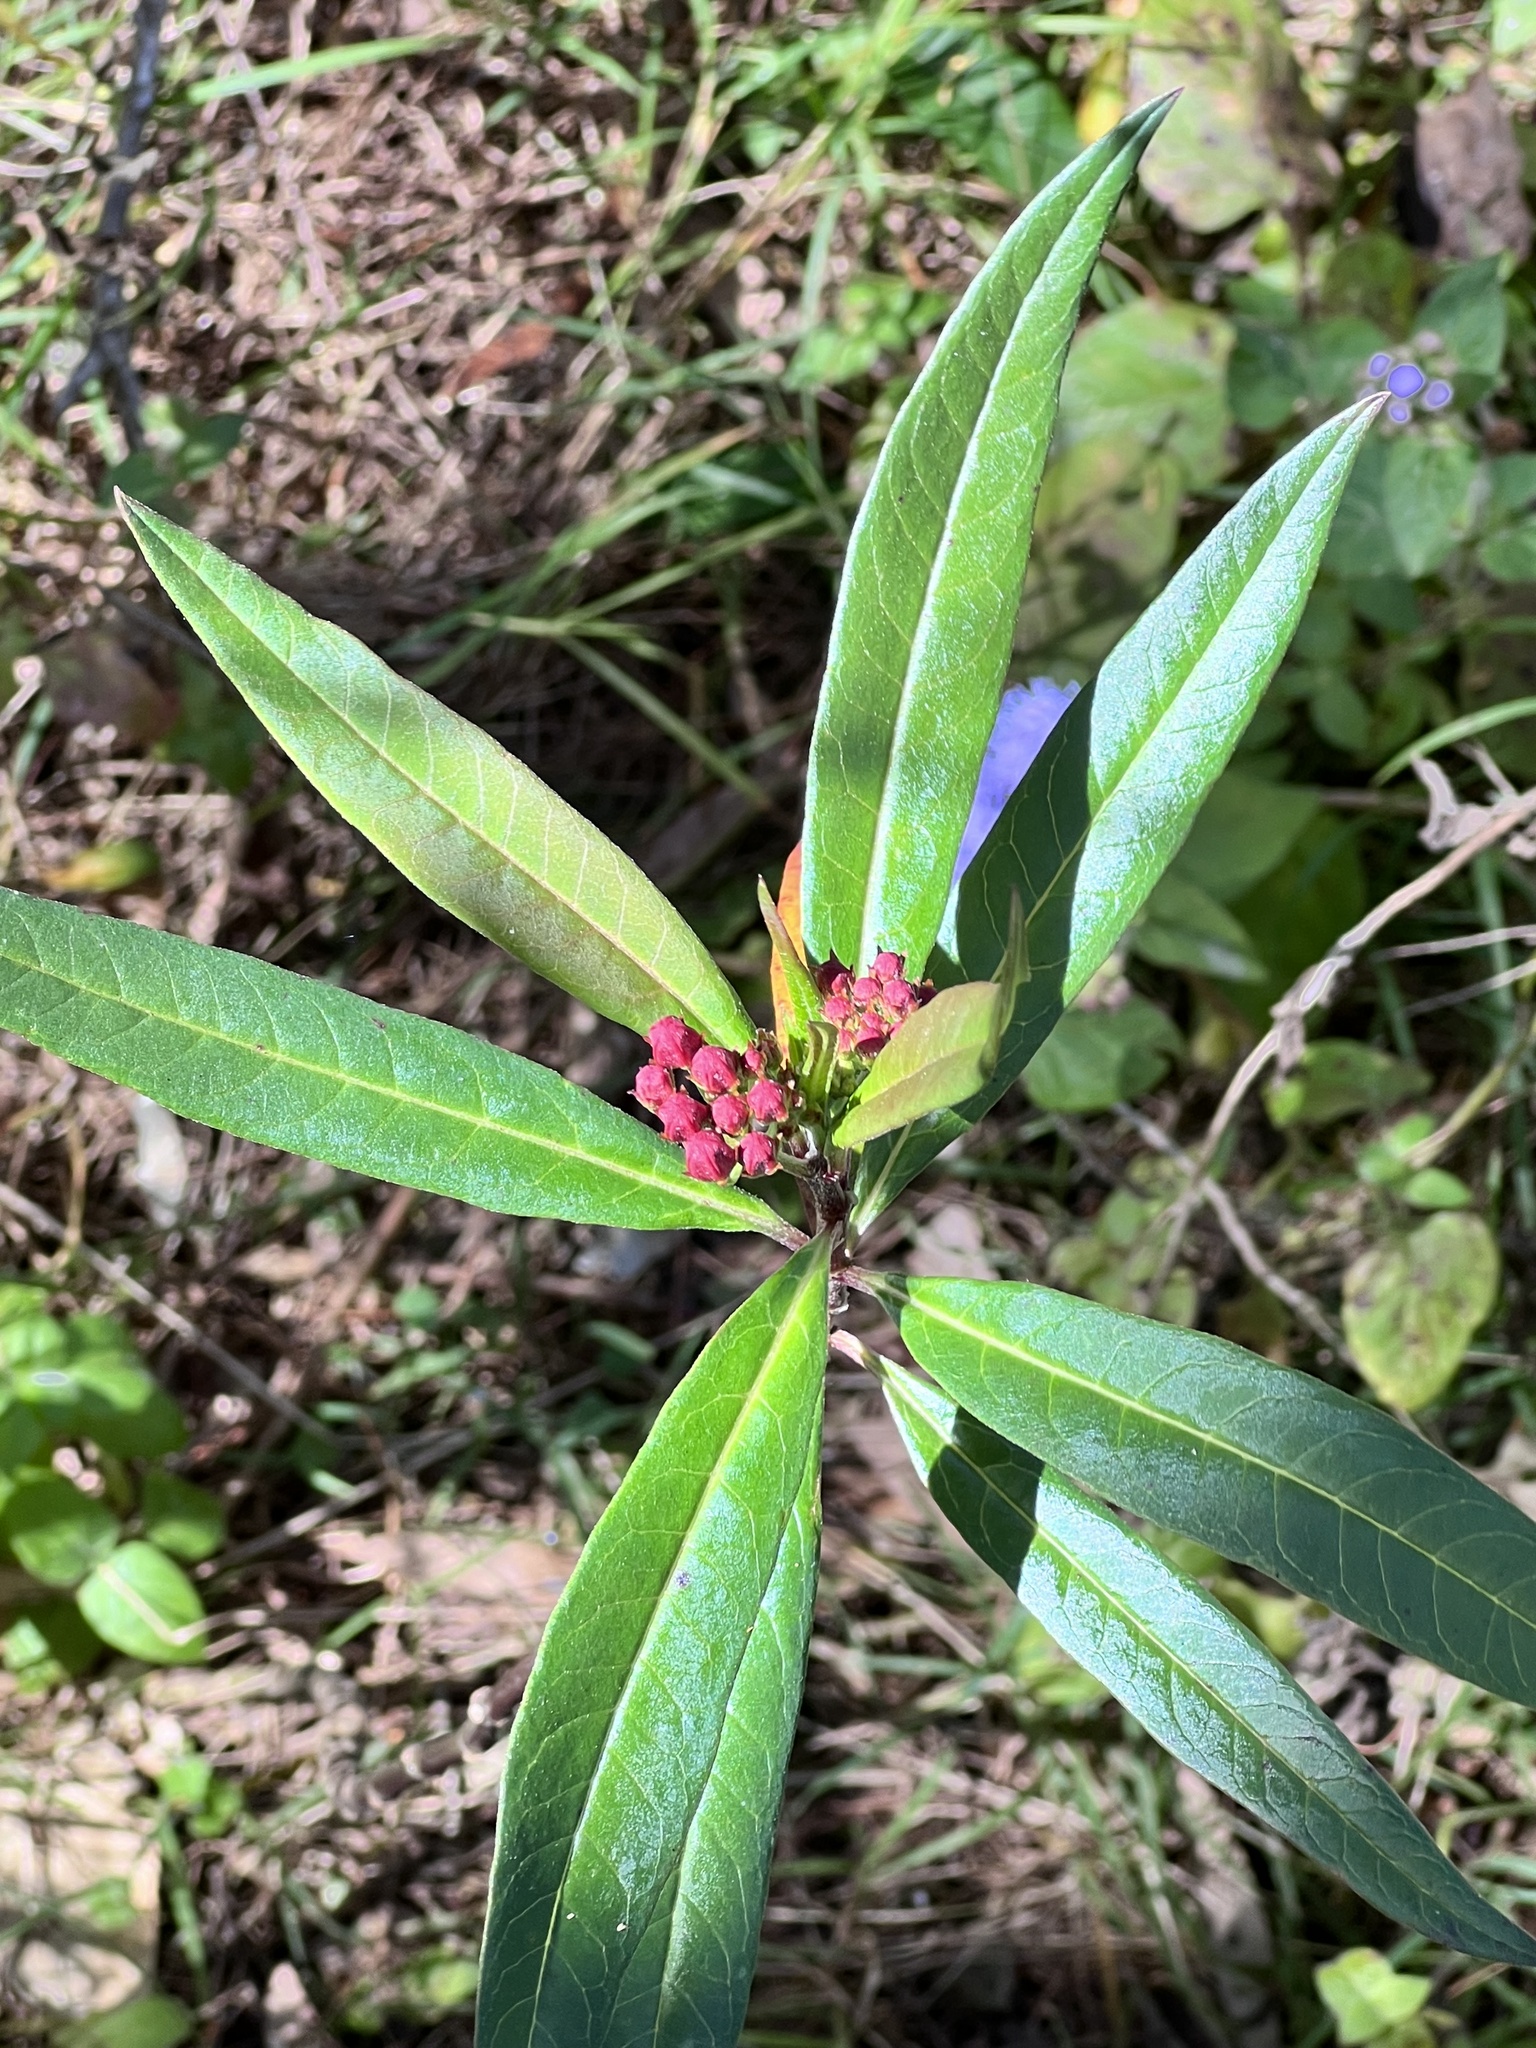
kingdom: Plantae
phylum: Tracheophyta
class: Magnoliopsida
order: Gentianales
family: Apocynaceae
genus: Asclepias
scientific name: Asclepias curassavica
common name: Bloodflower
